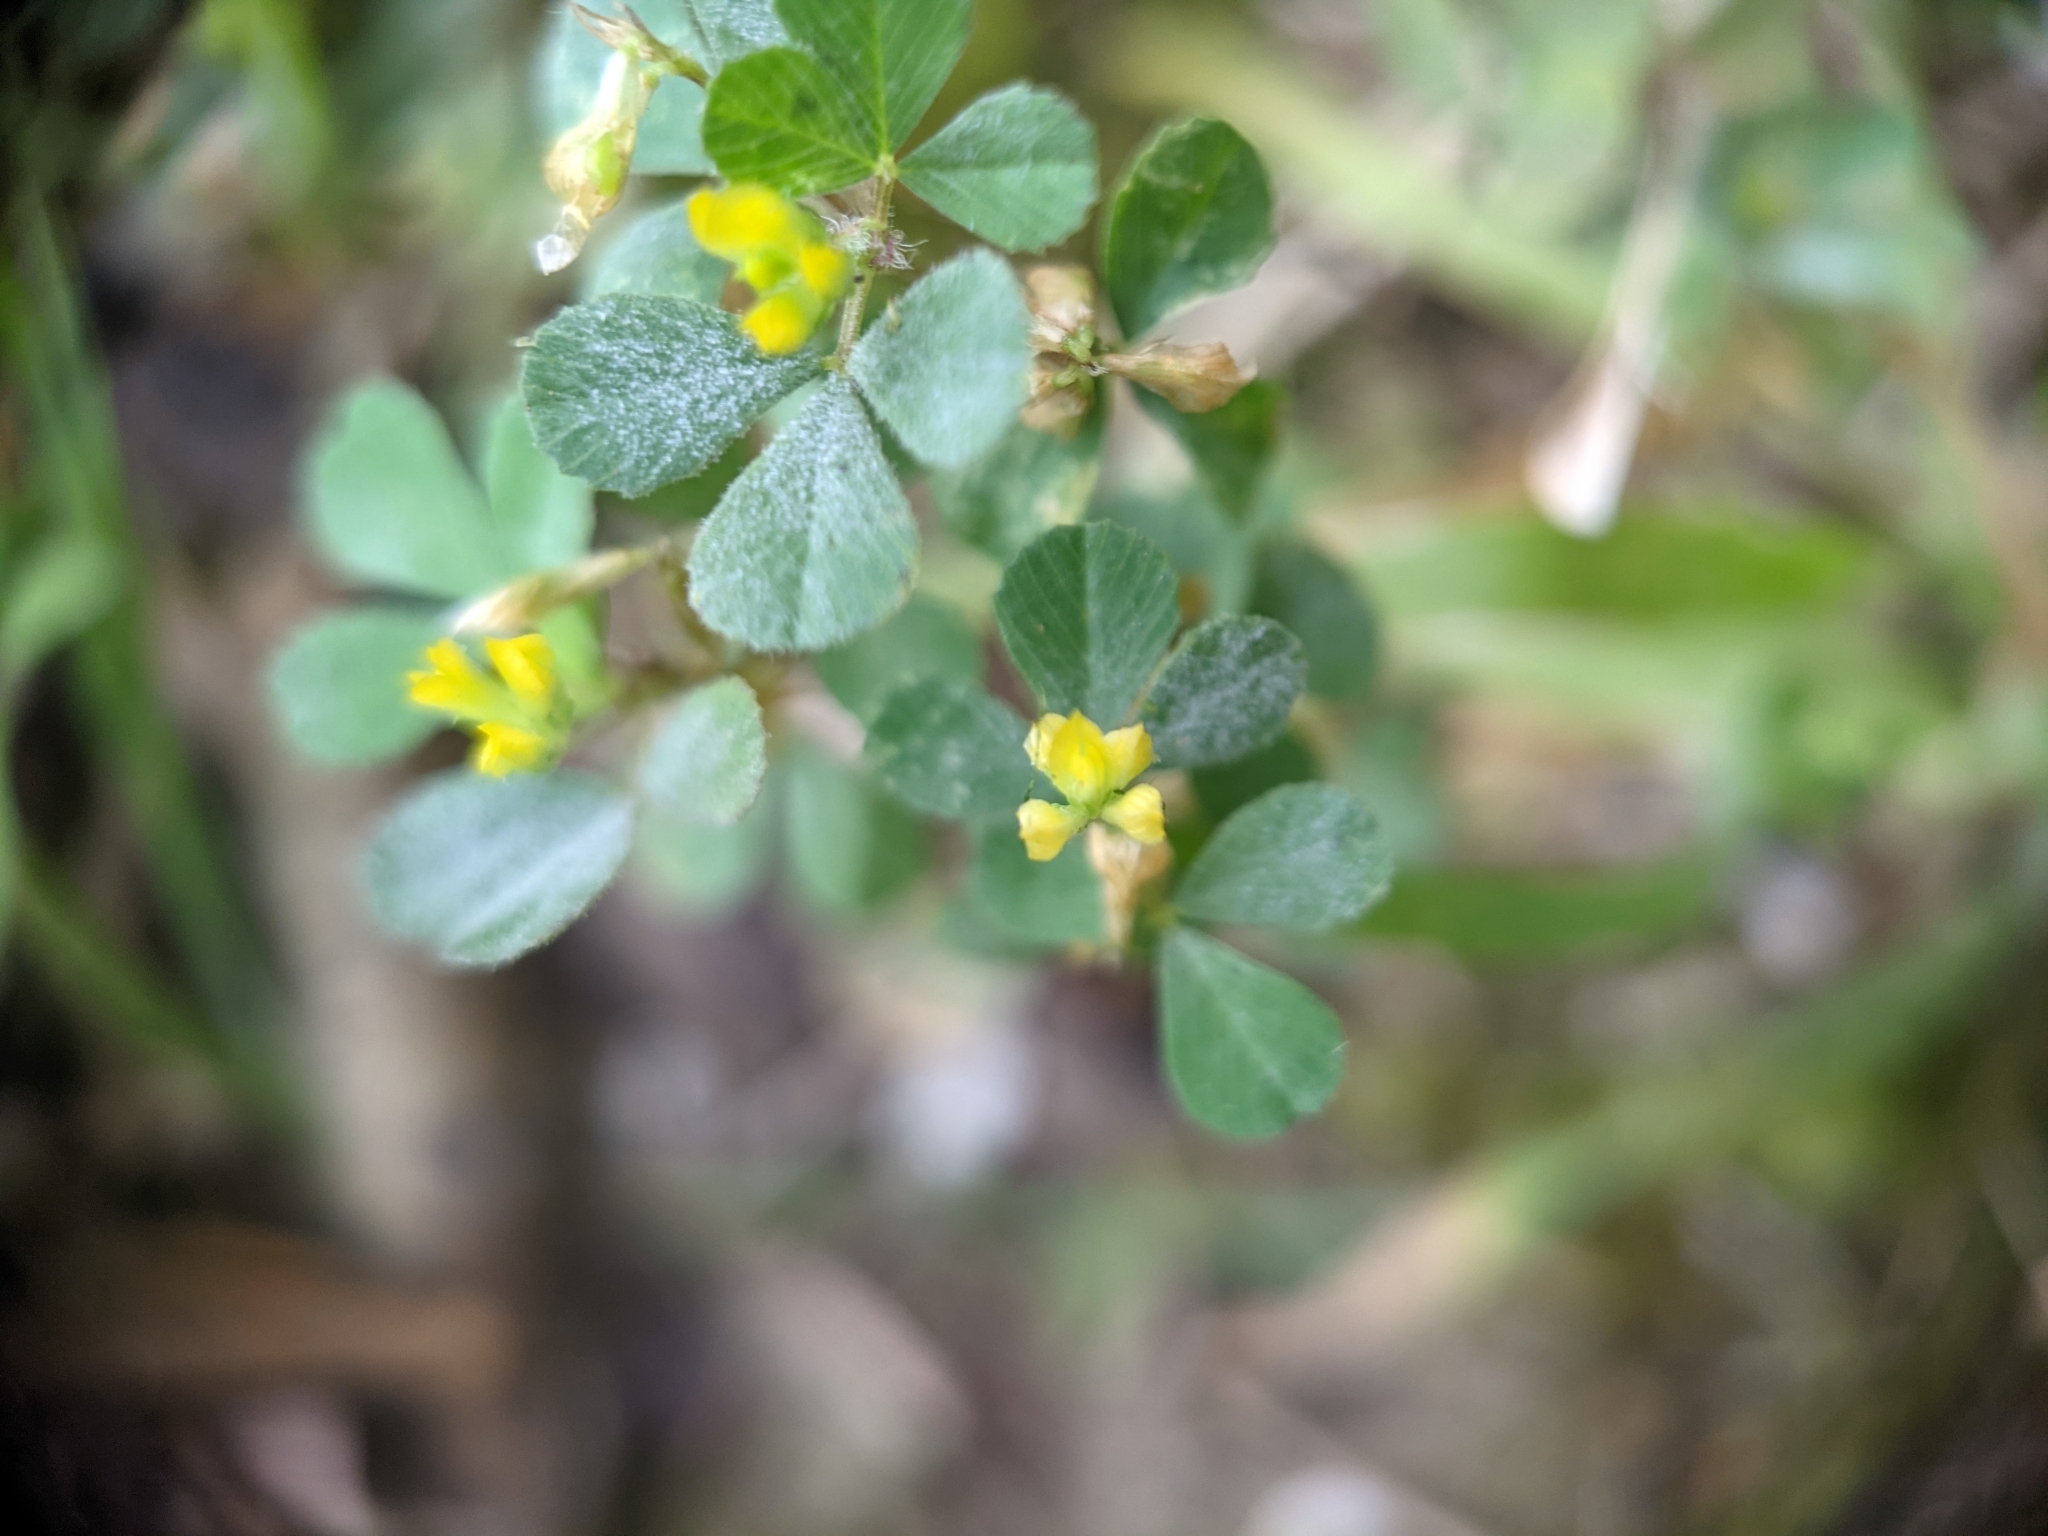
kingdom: Plantae
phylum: Tracheophyta
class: Magnoliopsida
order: Fabales
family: Fabaceae
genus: Trifolium
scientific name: Trifolium dubium
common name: Suckling clover
